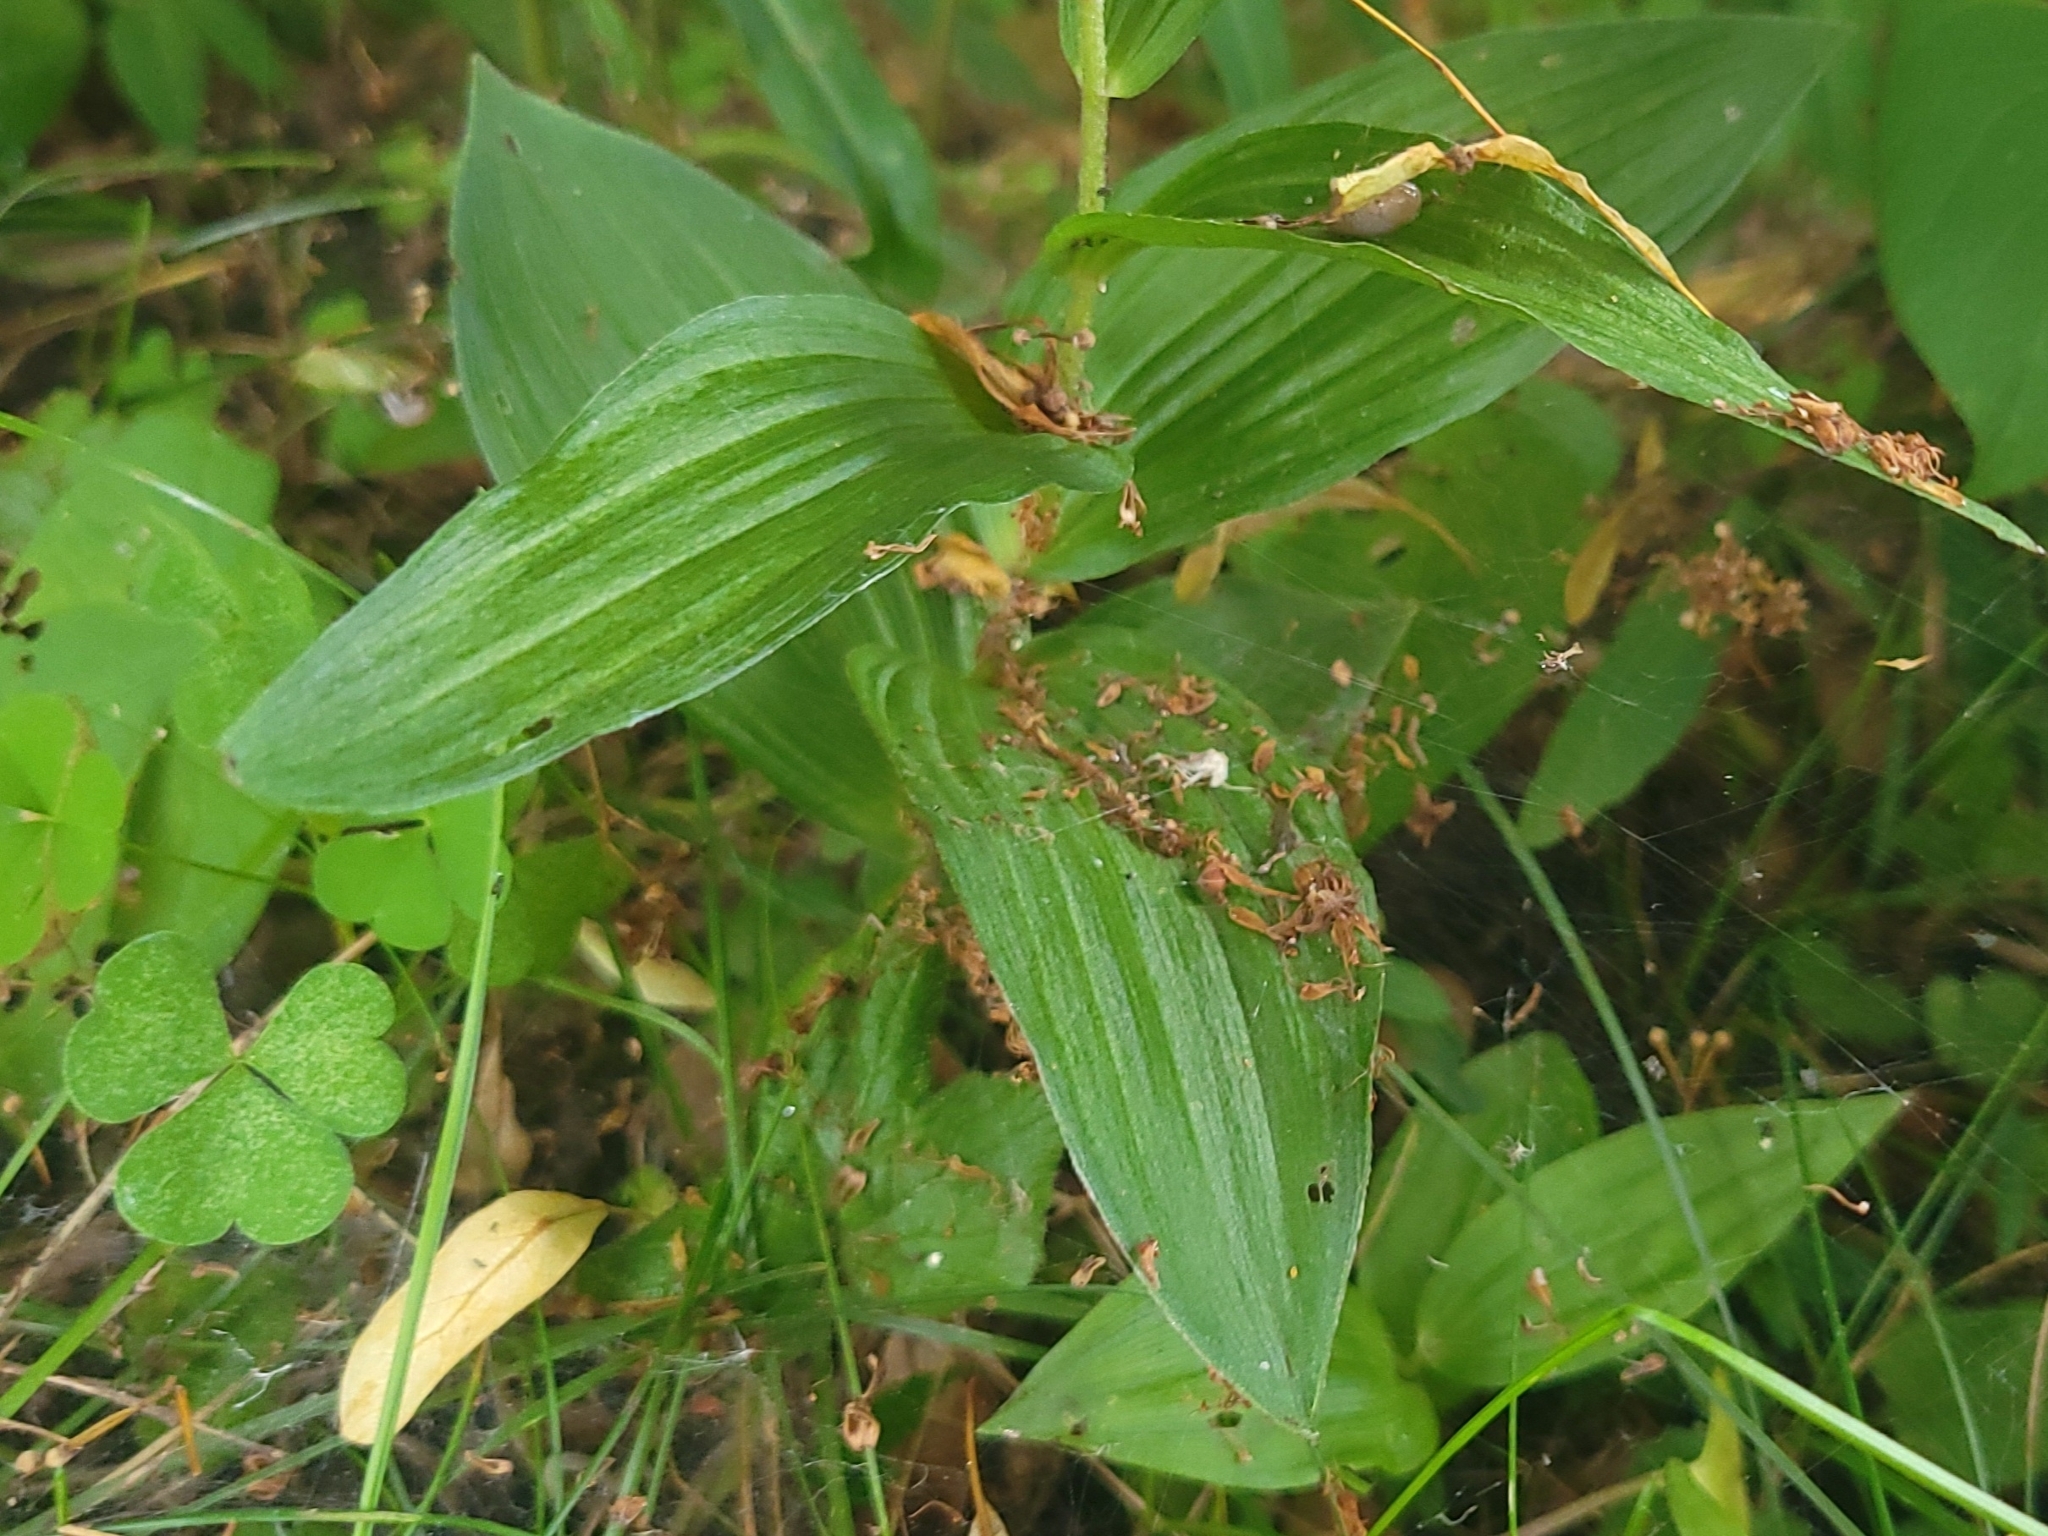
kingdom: Plantae
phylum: Tracheophyta
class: Liliopsida
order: Asparagales
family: Orchidaceae
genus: Epipactis
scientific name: Epipactis helleborine
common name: Broad-leaved helleborine
